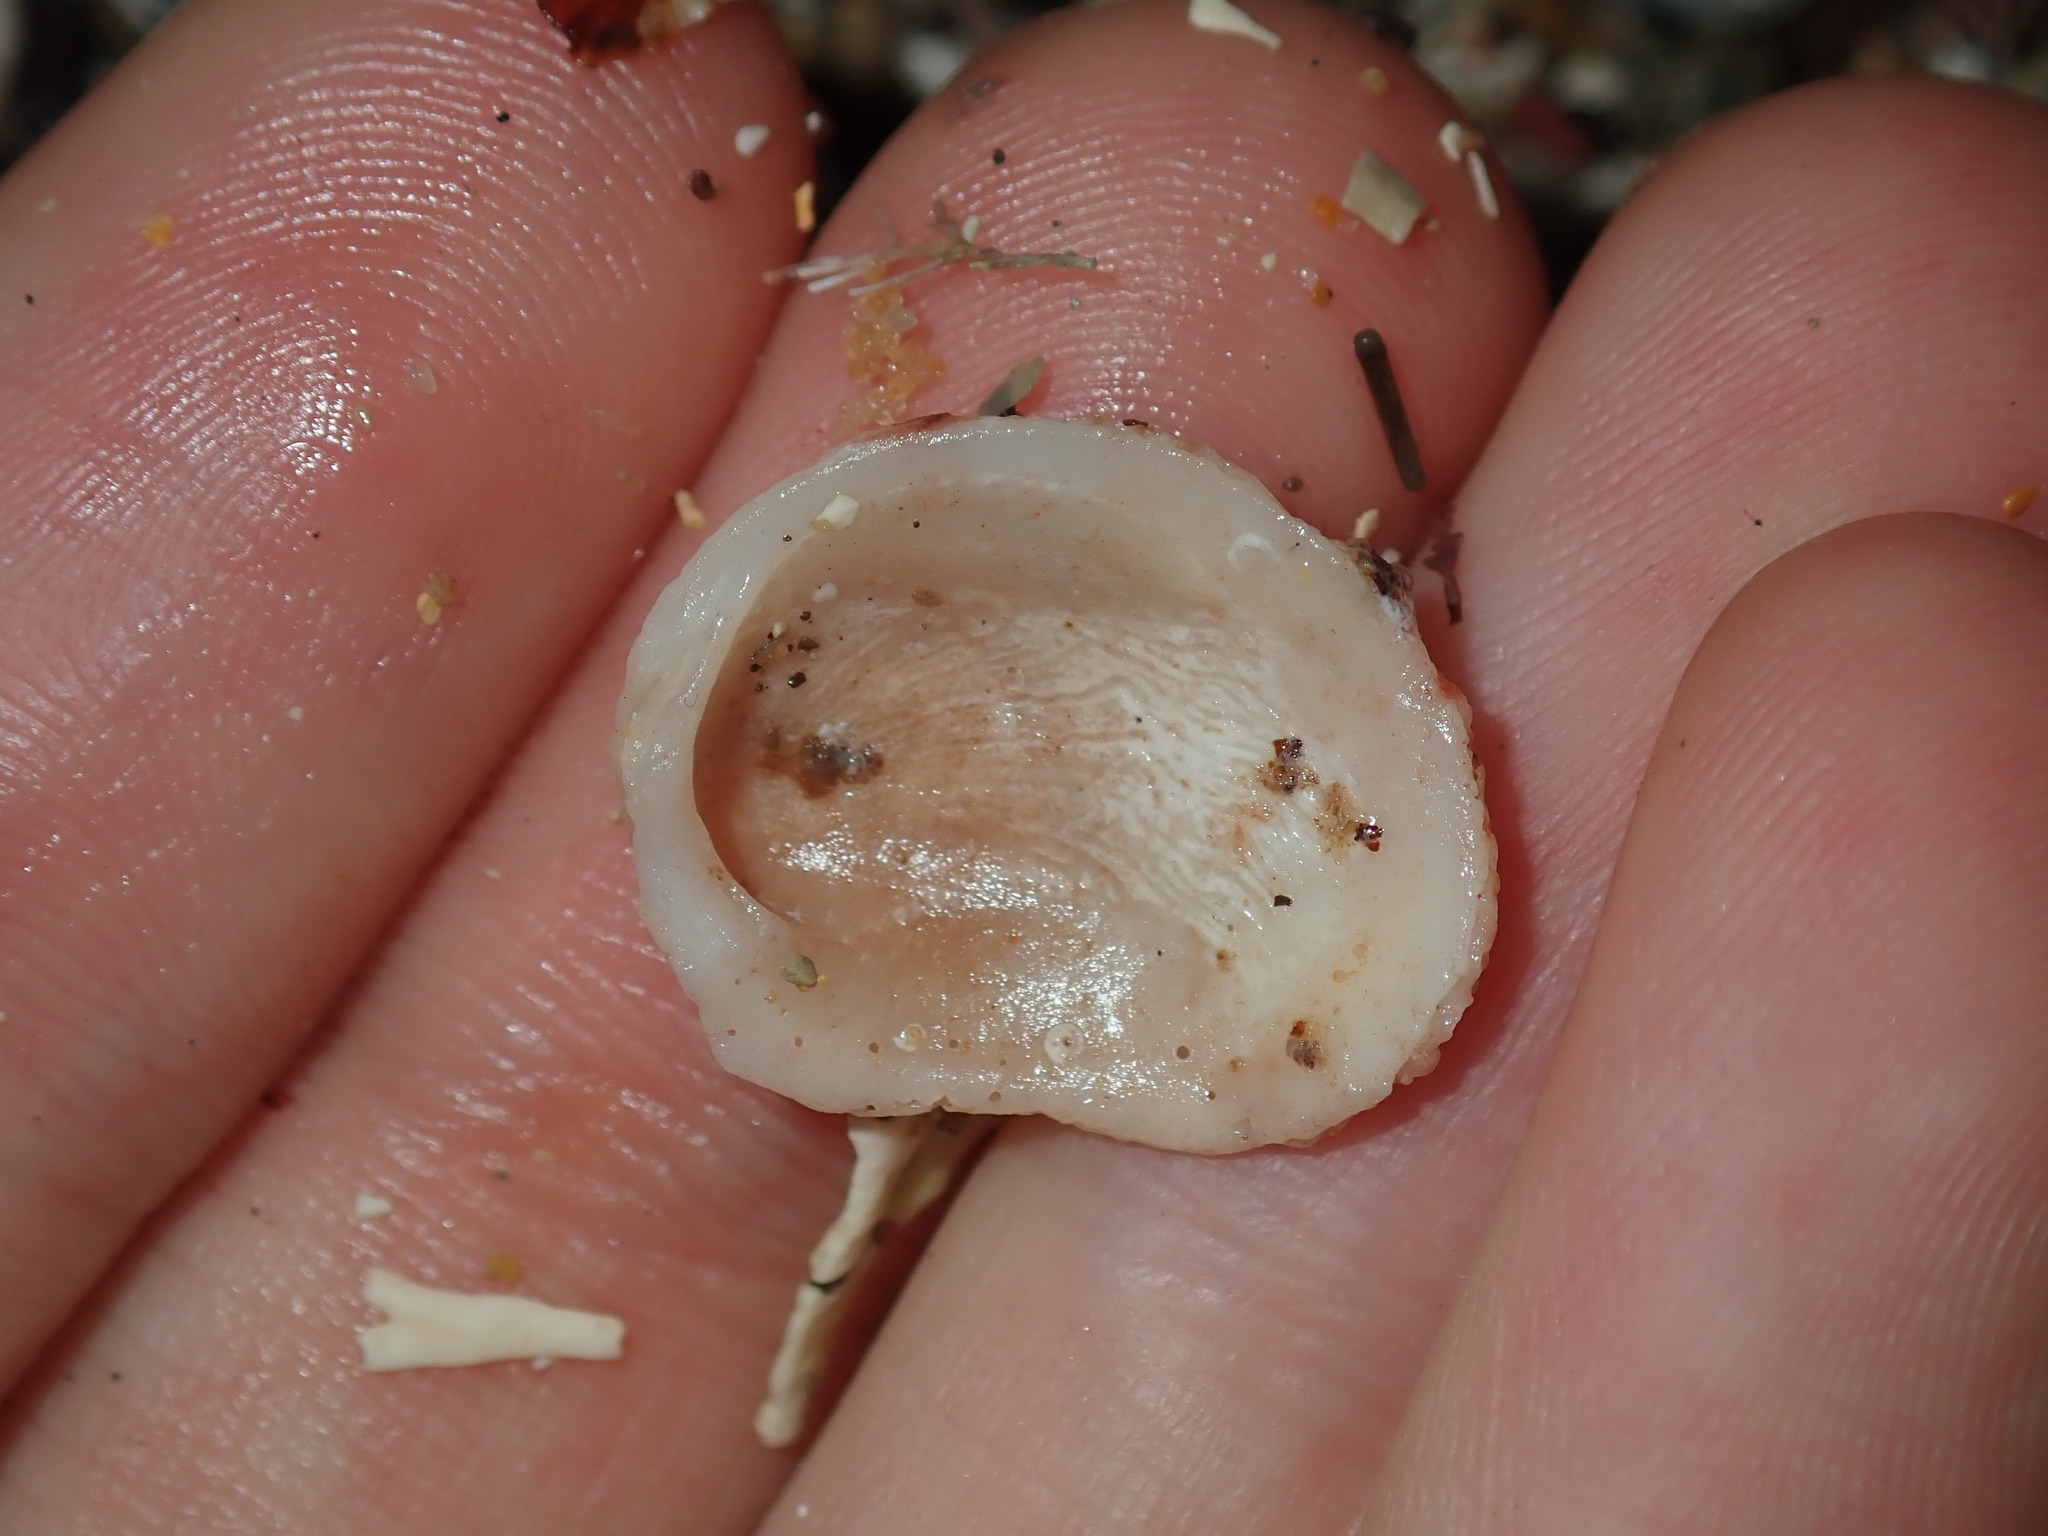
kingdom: Animalia
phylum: Mollusca
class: Bivalvia
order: Venerida
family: Chamidae
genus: Chama
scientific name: Chama asperella
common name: Mollusca
